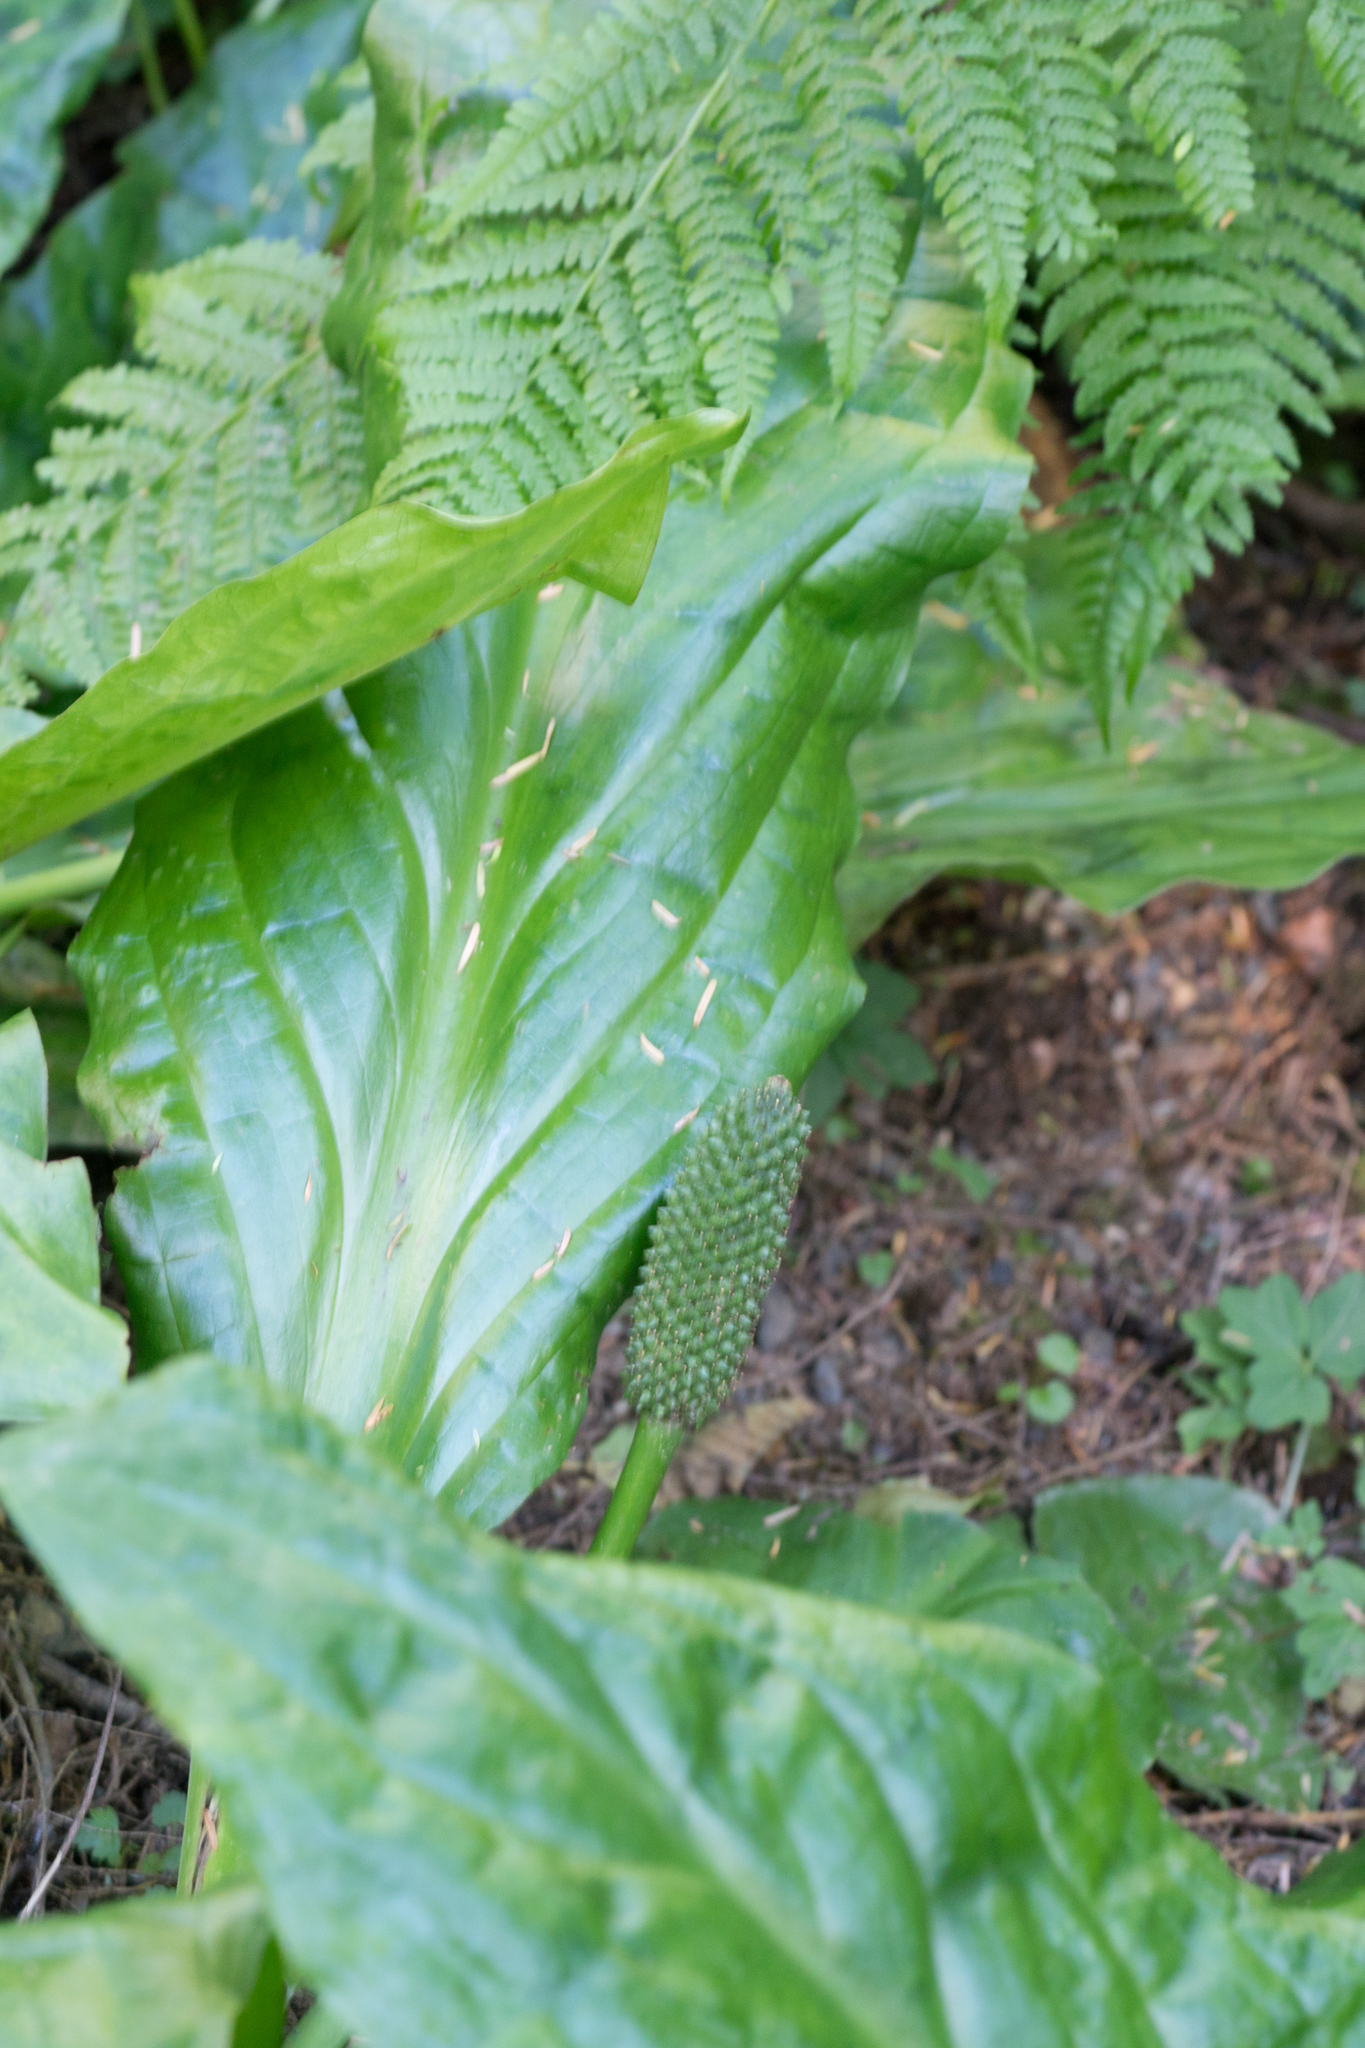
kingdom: Plantae
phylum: Tracheophyta
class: Liliopsida
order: Alismatales
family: Araceae
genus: Lysichiton
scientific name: Lysichiton americanus
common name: American skunk cabbage
